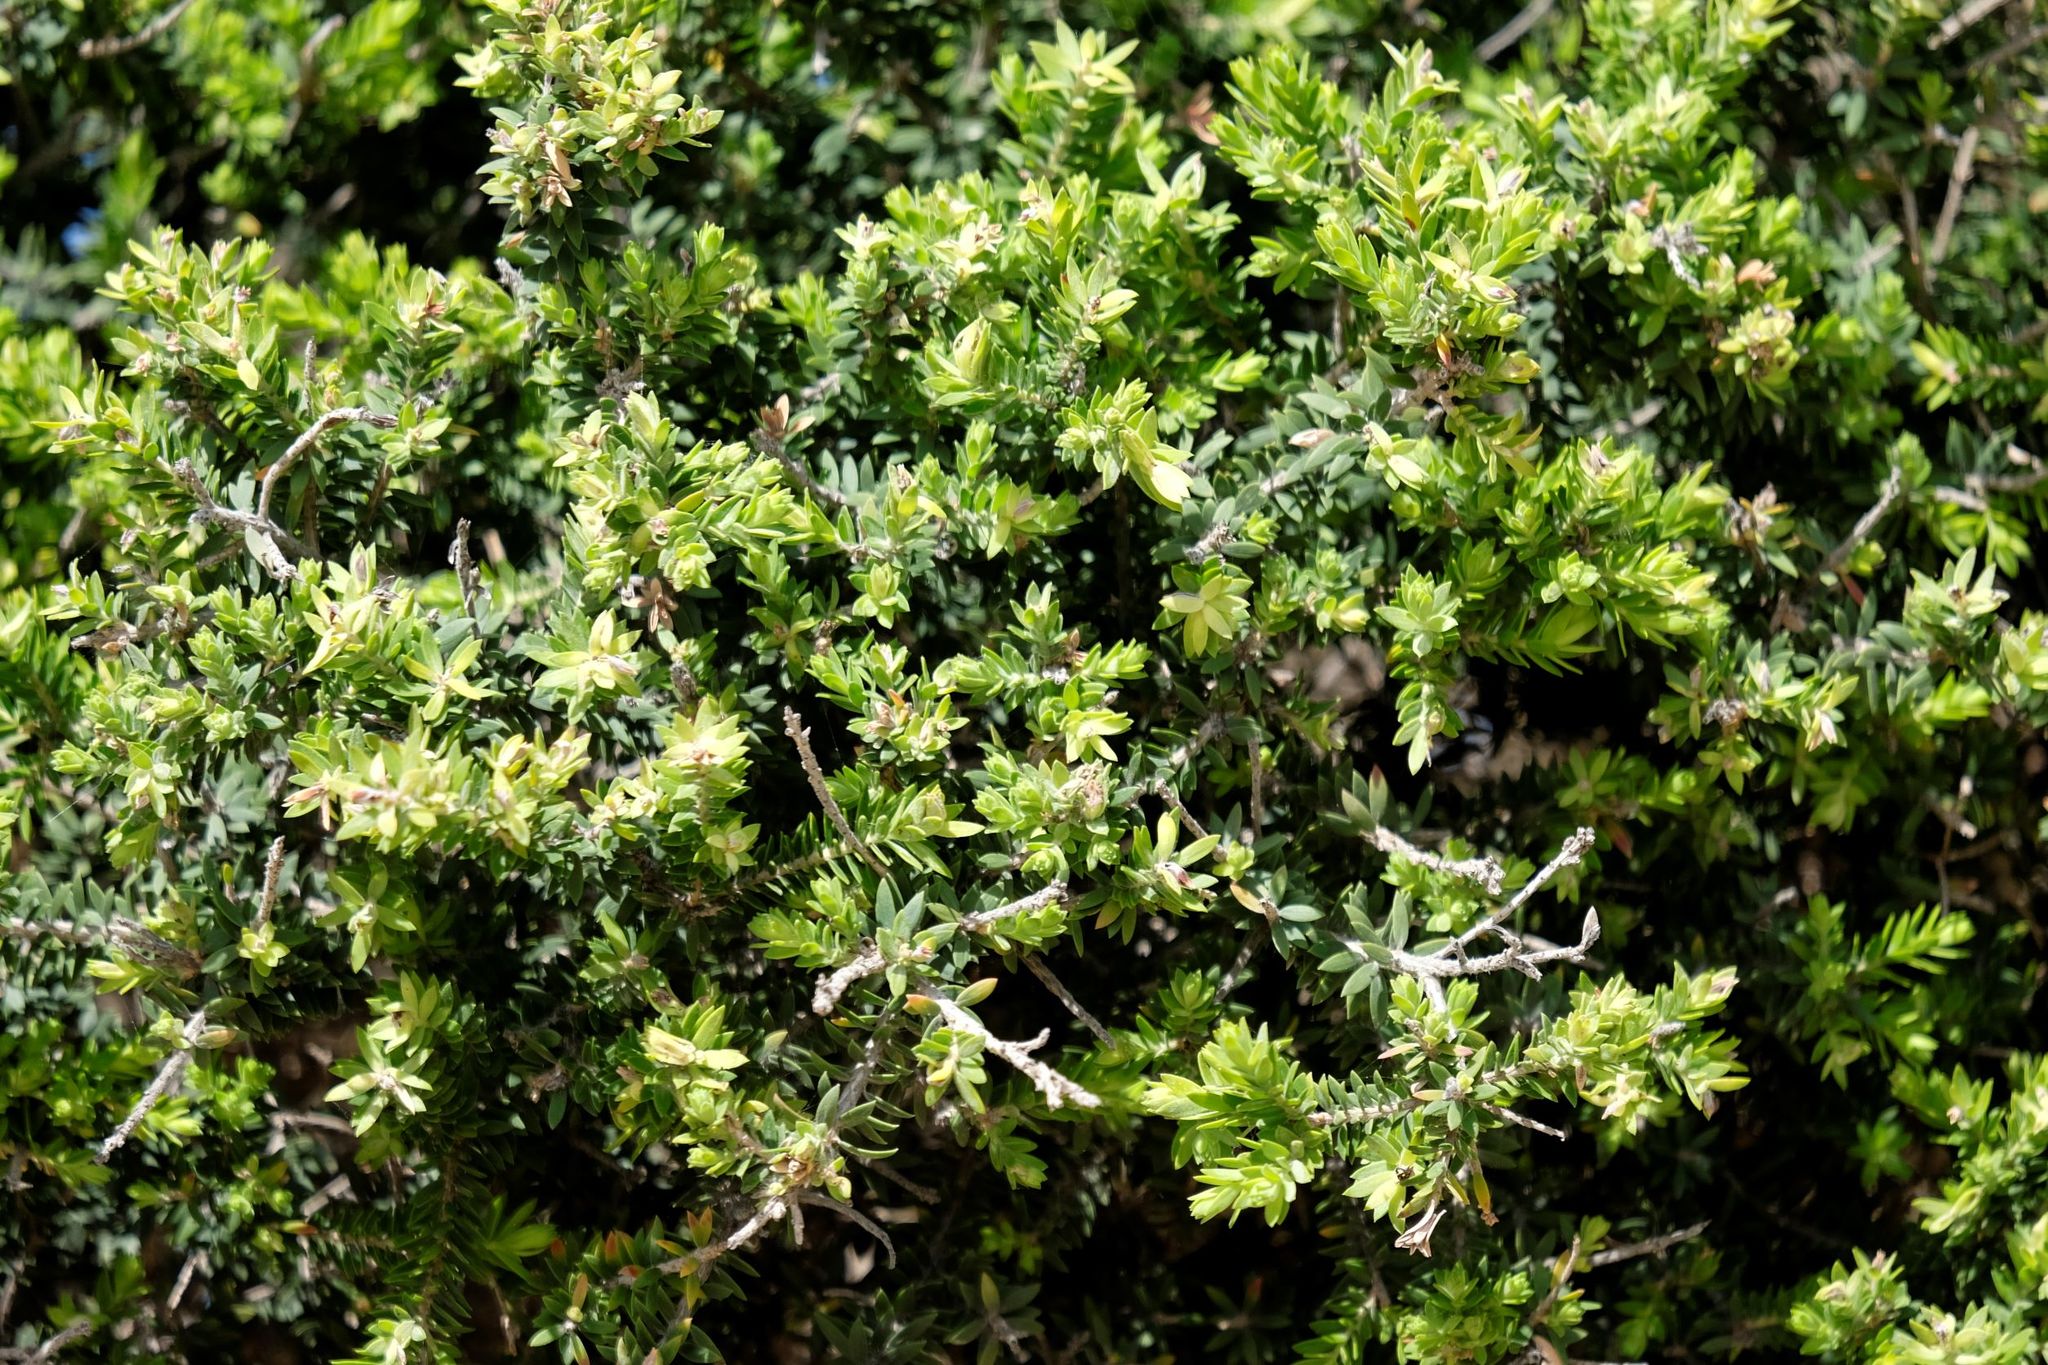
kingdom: Plantae
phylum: Tracheophyta
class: Magnoliopsida
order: Myrtales
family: Myrtaceae
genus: Melaleuca
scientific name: Melaleuca lanceolata
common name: Rottnest island teatree
